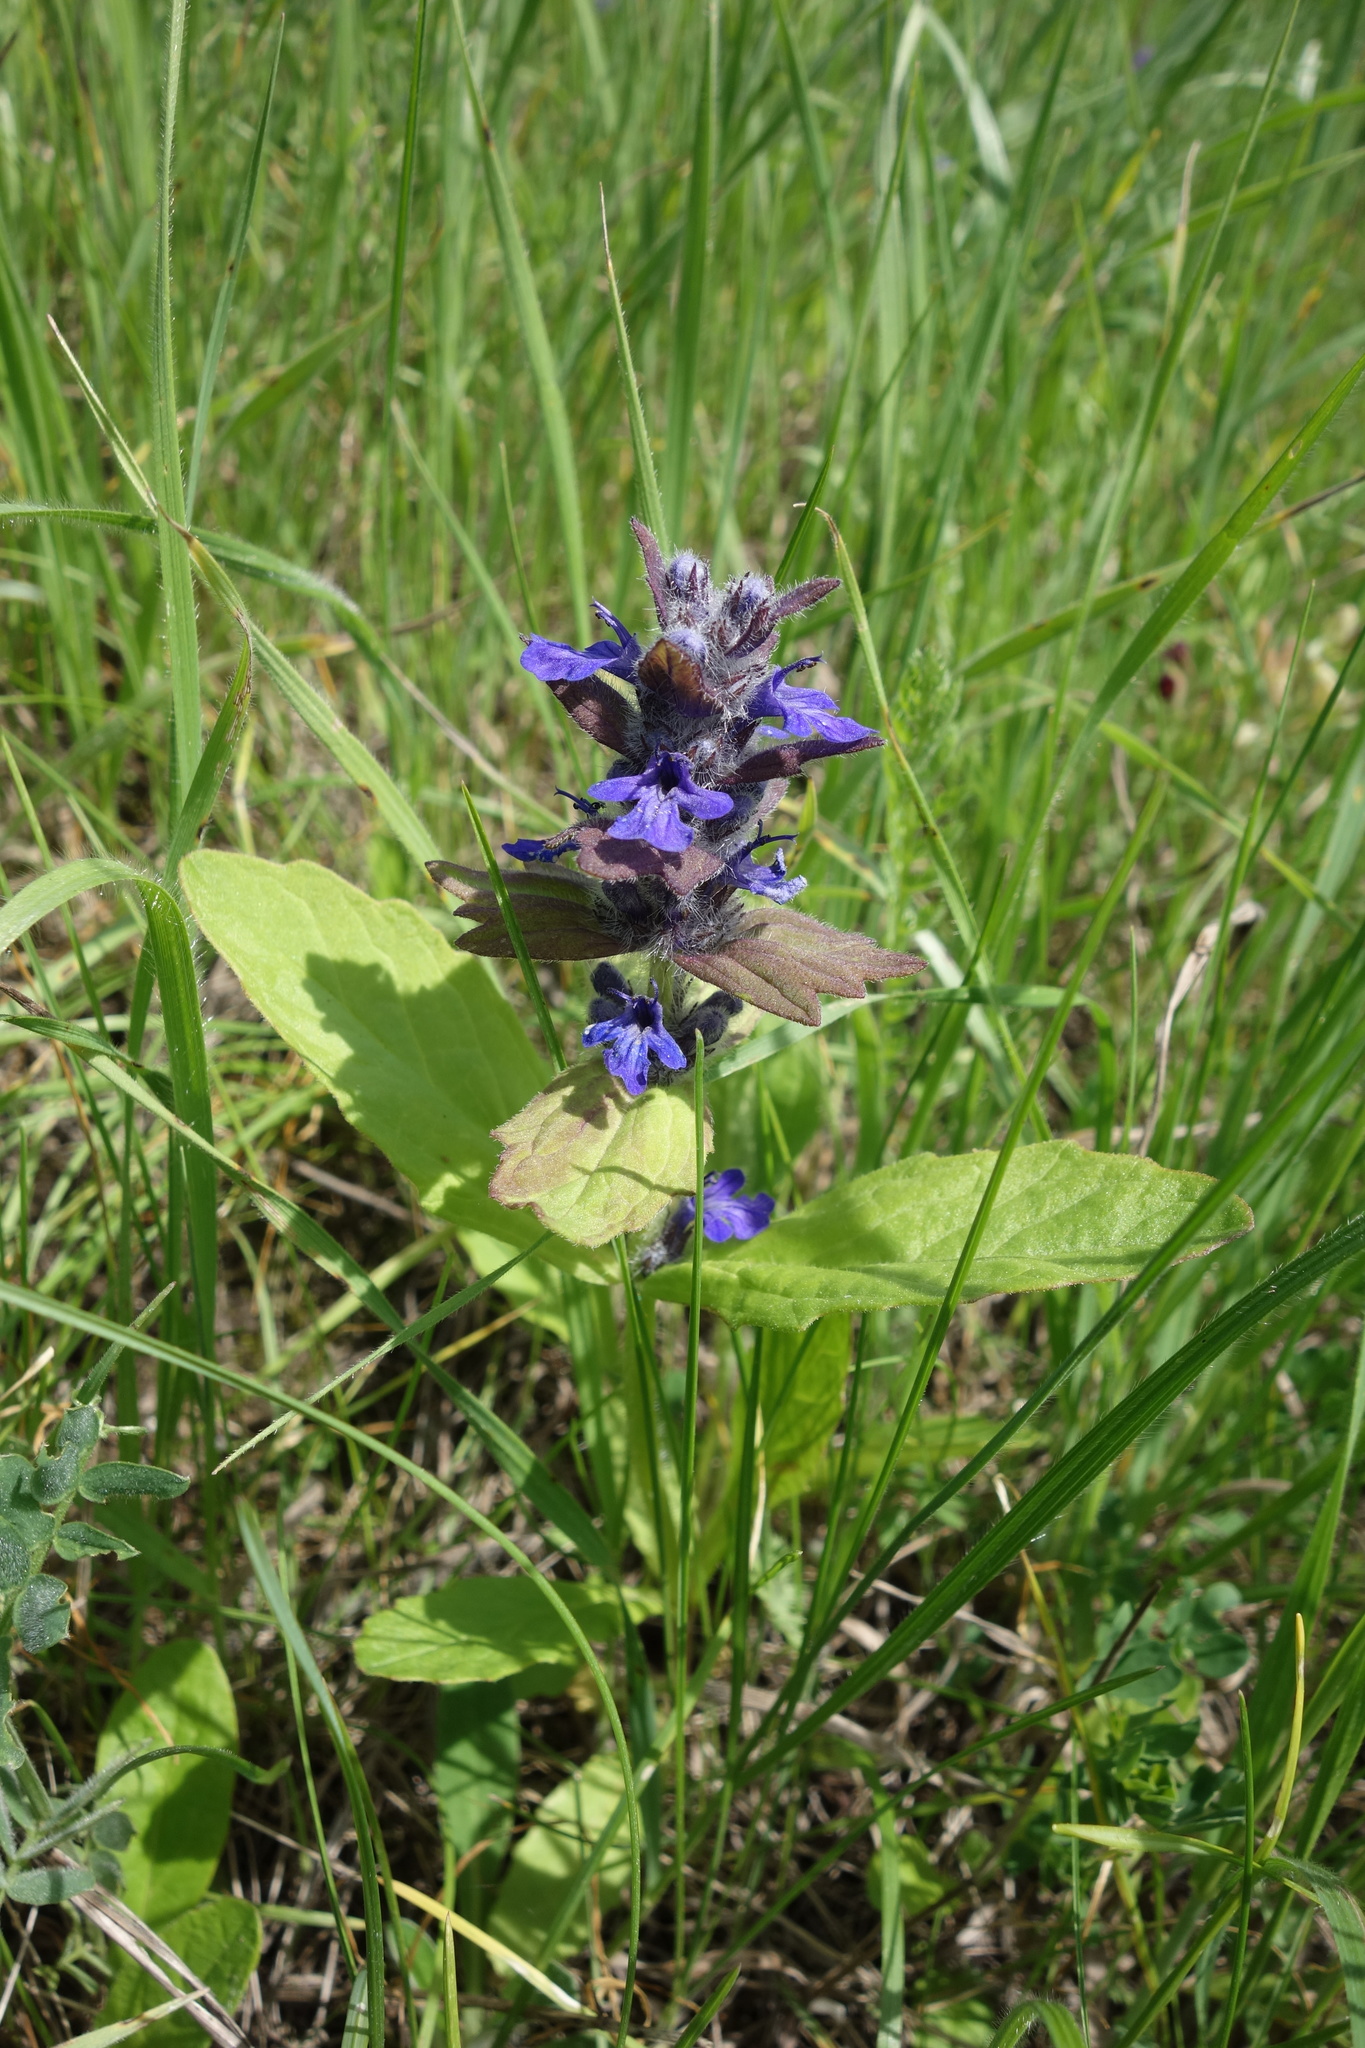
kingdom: Plantae
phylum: Tracheophyta
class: Magnoliopsida
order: Lamiales
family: Lamiaceae
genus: Ajuga
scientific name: Ajuga genevensis
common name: Blue bugle
